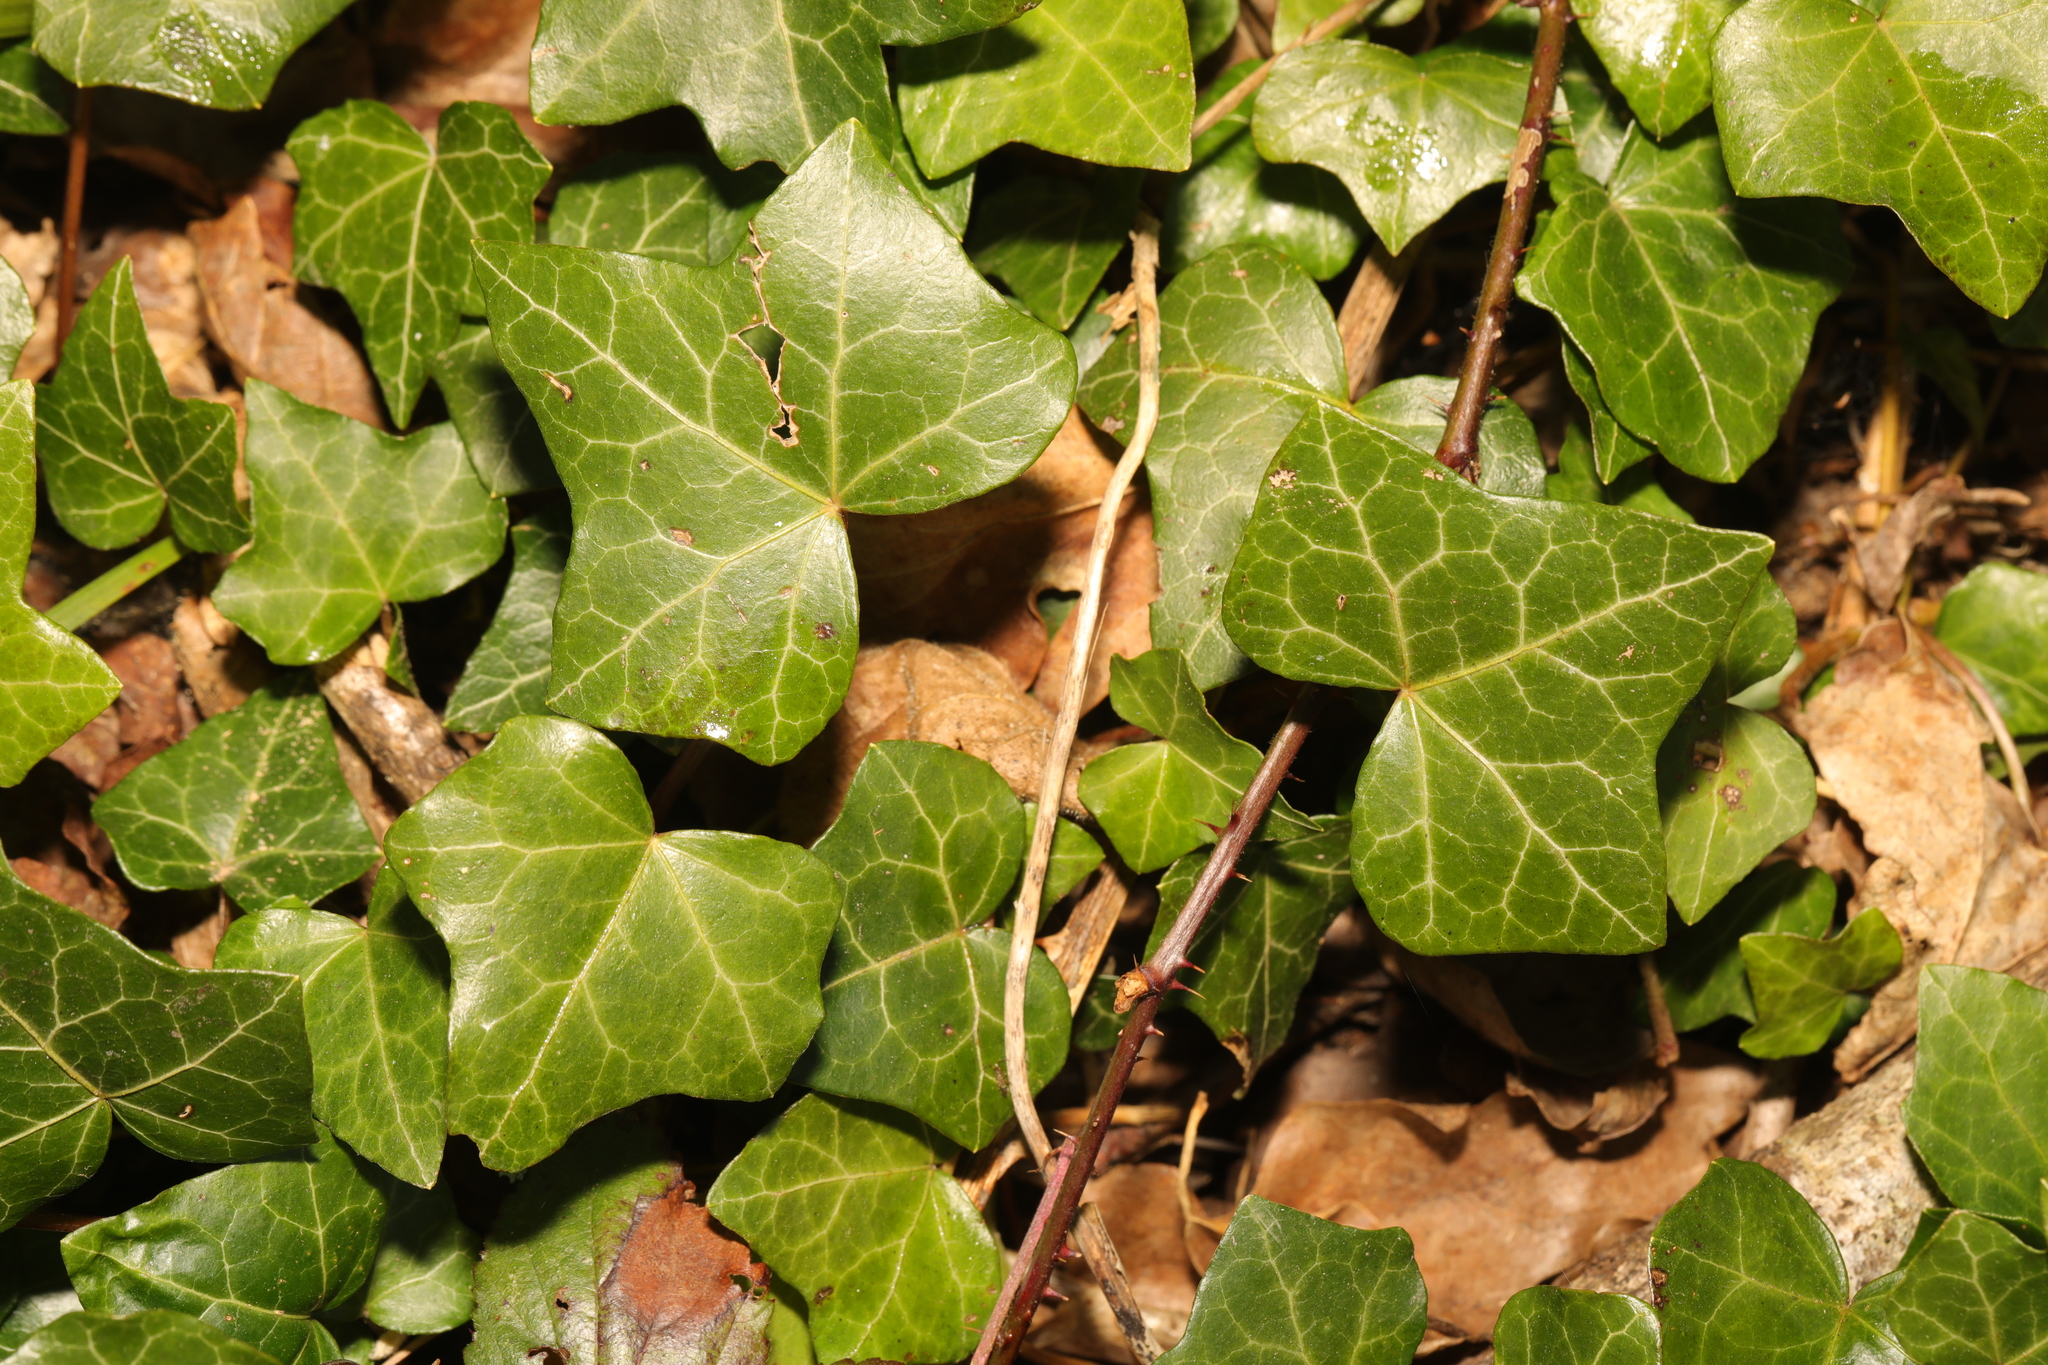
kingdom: Plantae
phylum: Tracheophyta
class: Magnoliopsida
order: Apiales
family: Araliaceae
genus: Hedera
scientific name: Hedera helix
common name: Ivy
